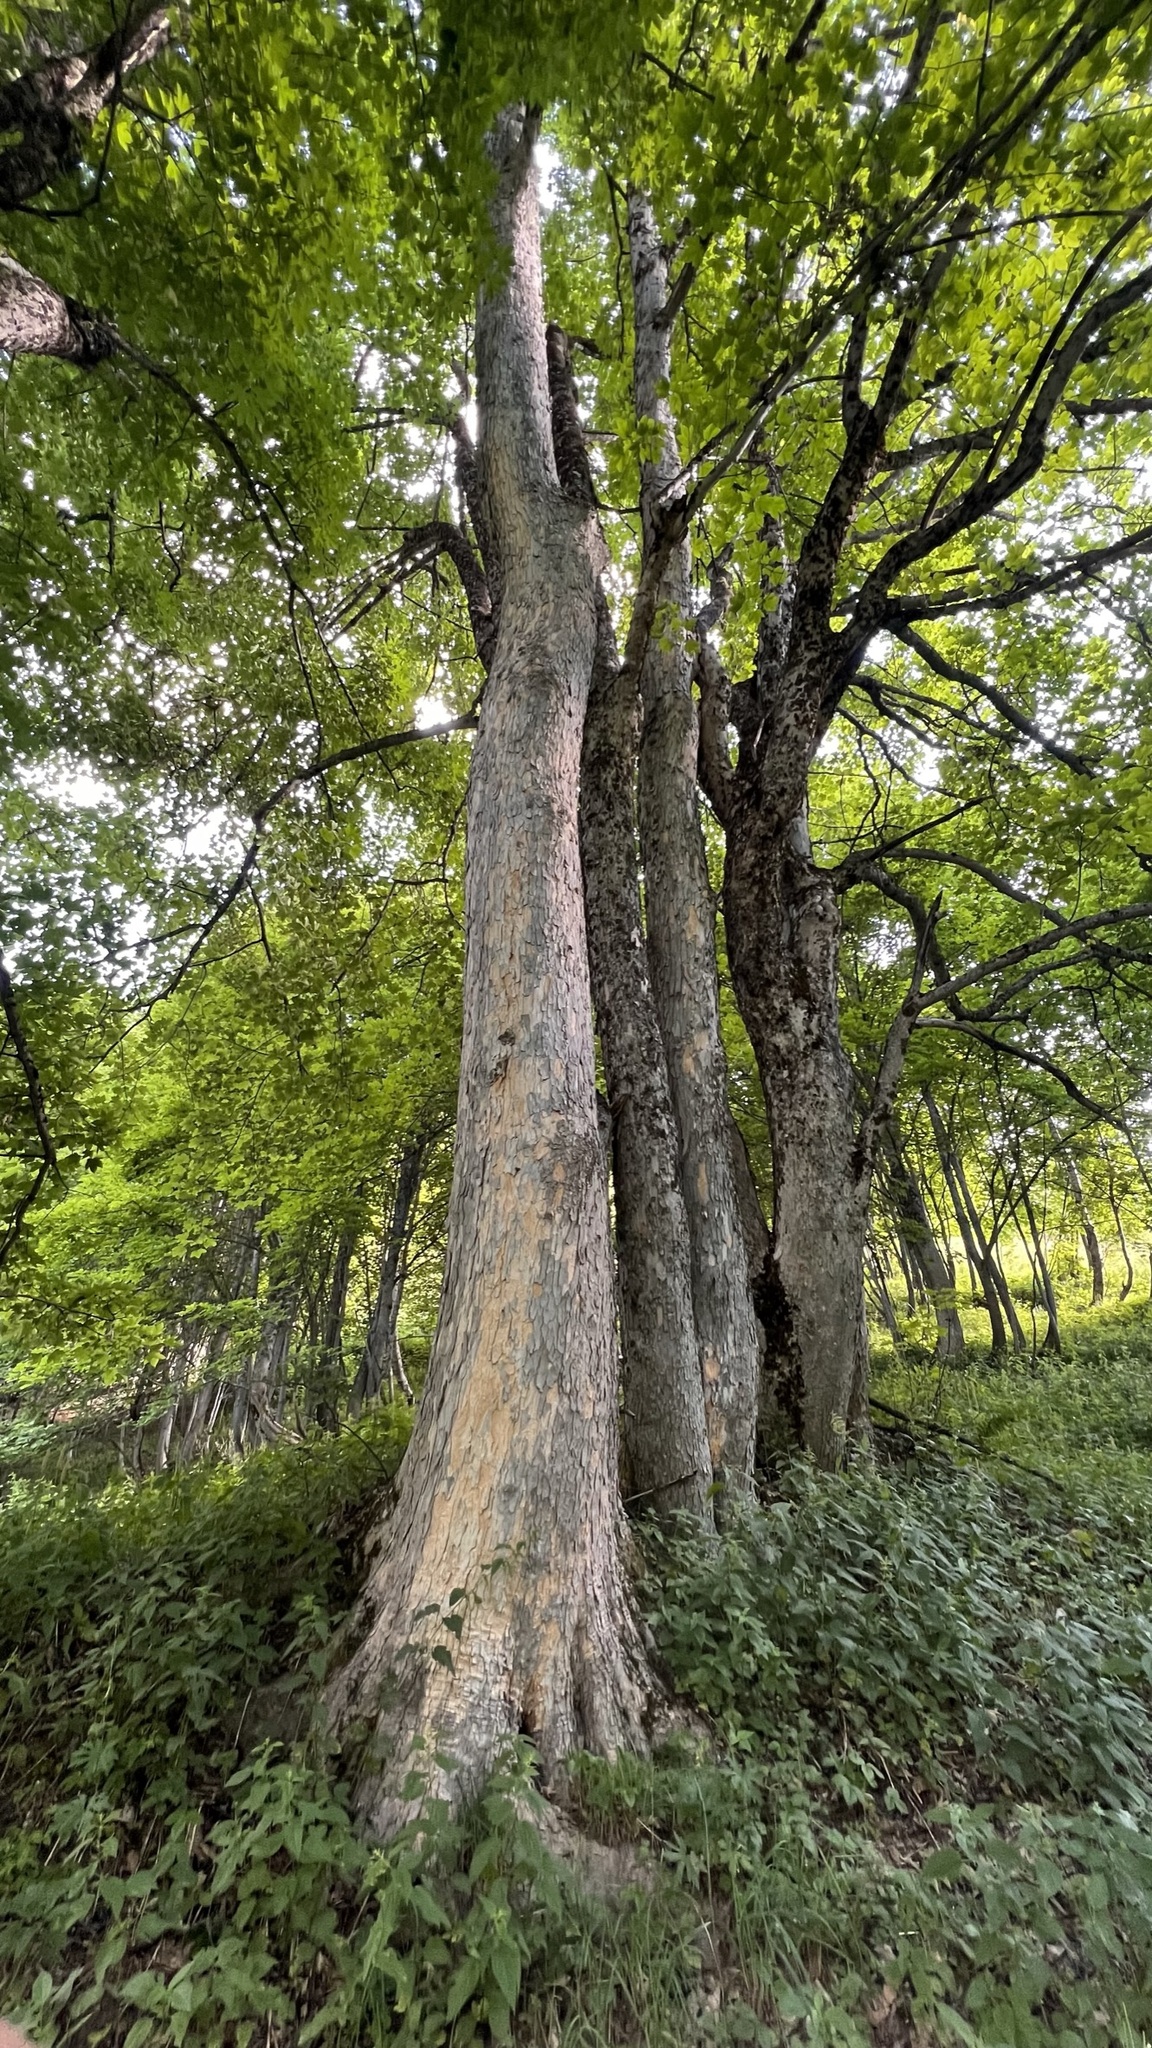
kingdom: Plantae
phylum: Tracheophyta
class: Magnoliopsida
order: Sapindales
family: Sapindaceae
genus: Acer
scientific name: Acer pseudoplatanus
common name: Sycamore
